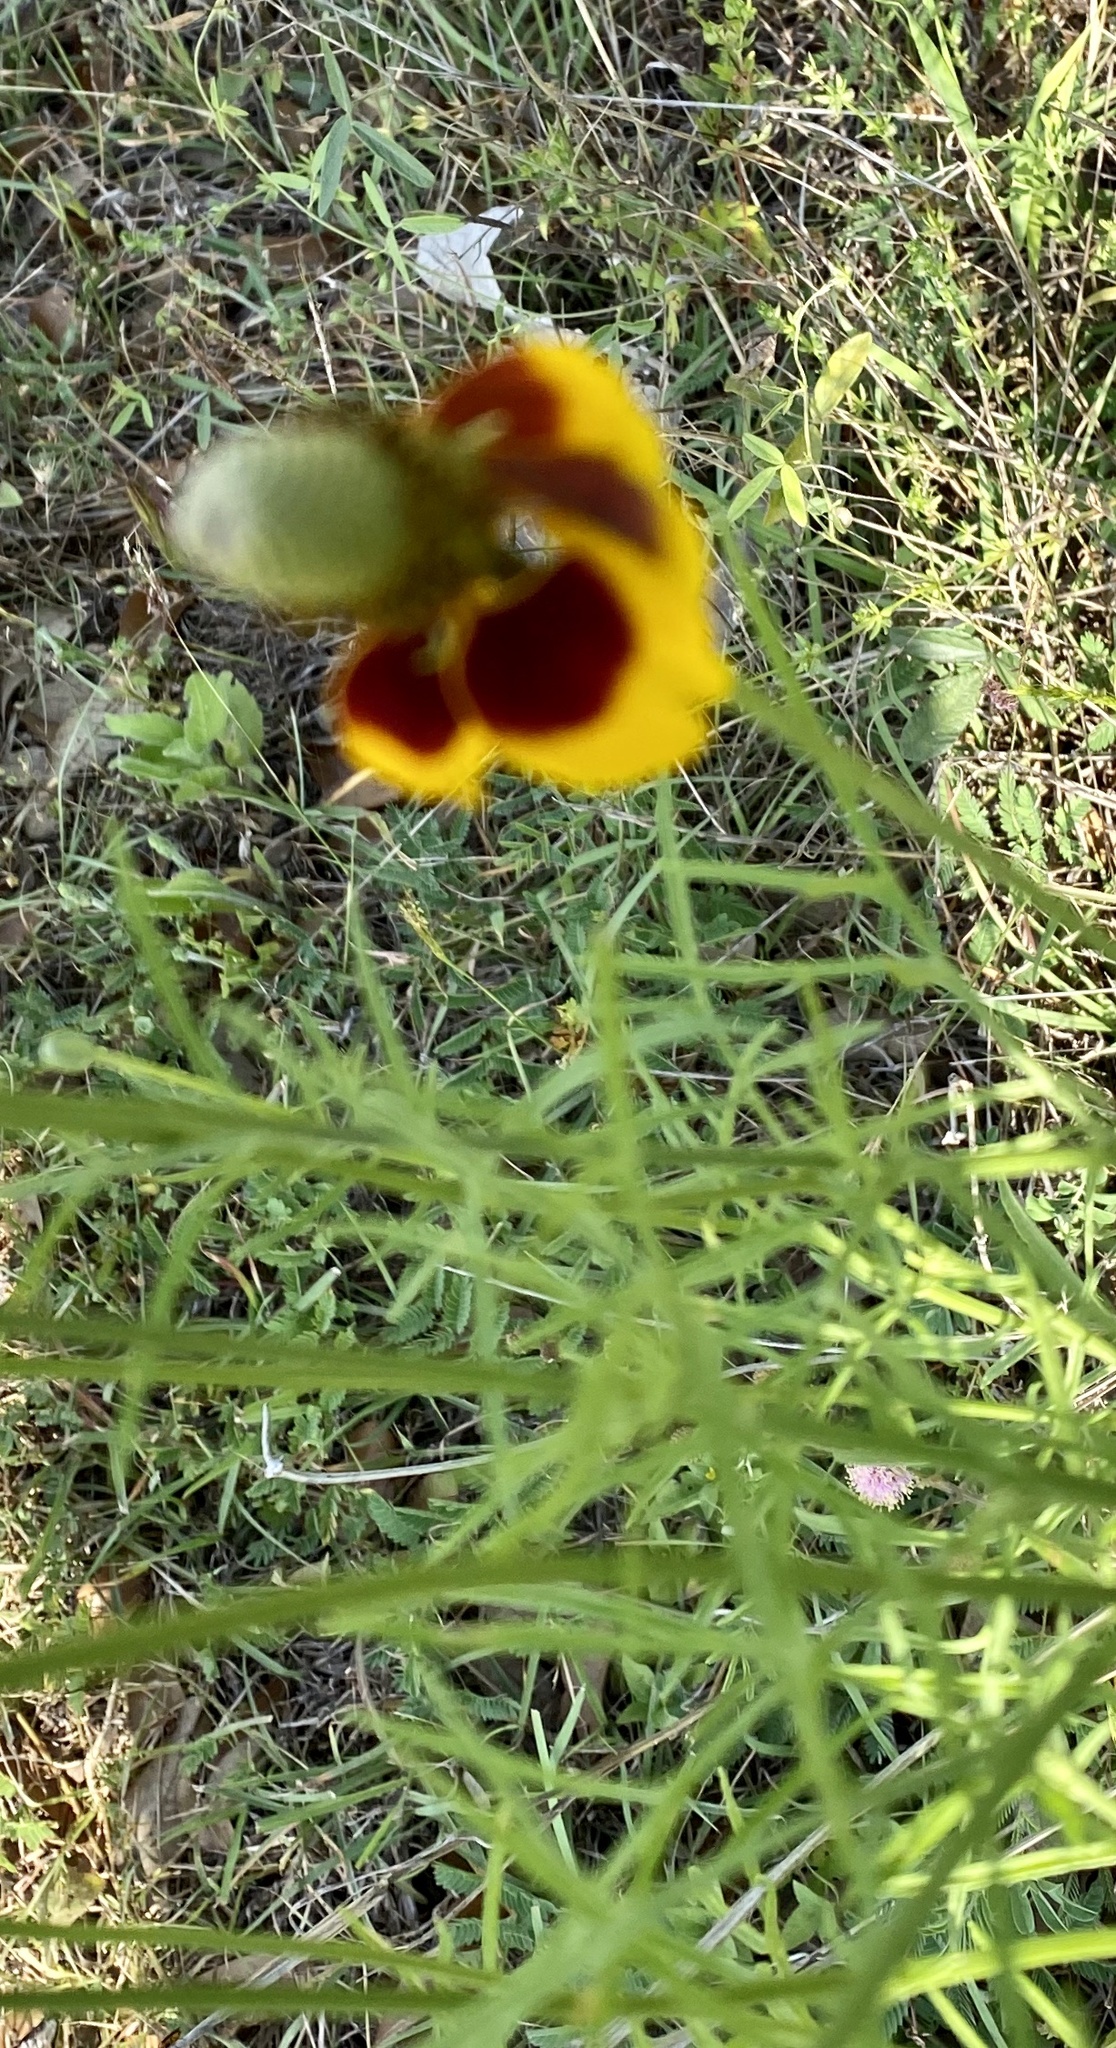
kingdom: Plantae
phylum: Tracheophyta
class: Magnoliopsida
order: Asterales
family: Asteraceae
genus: Ratibida
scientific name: Ratibida columnifera
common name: Prairie coneflower
